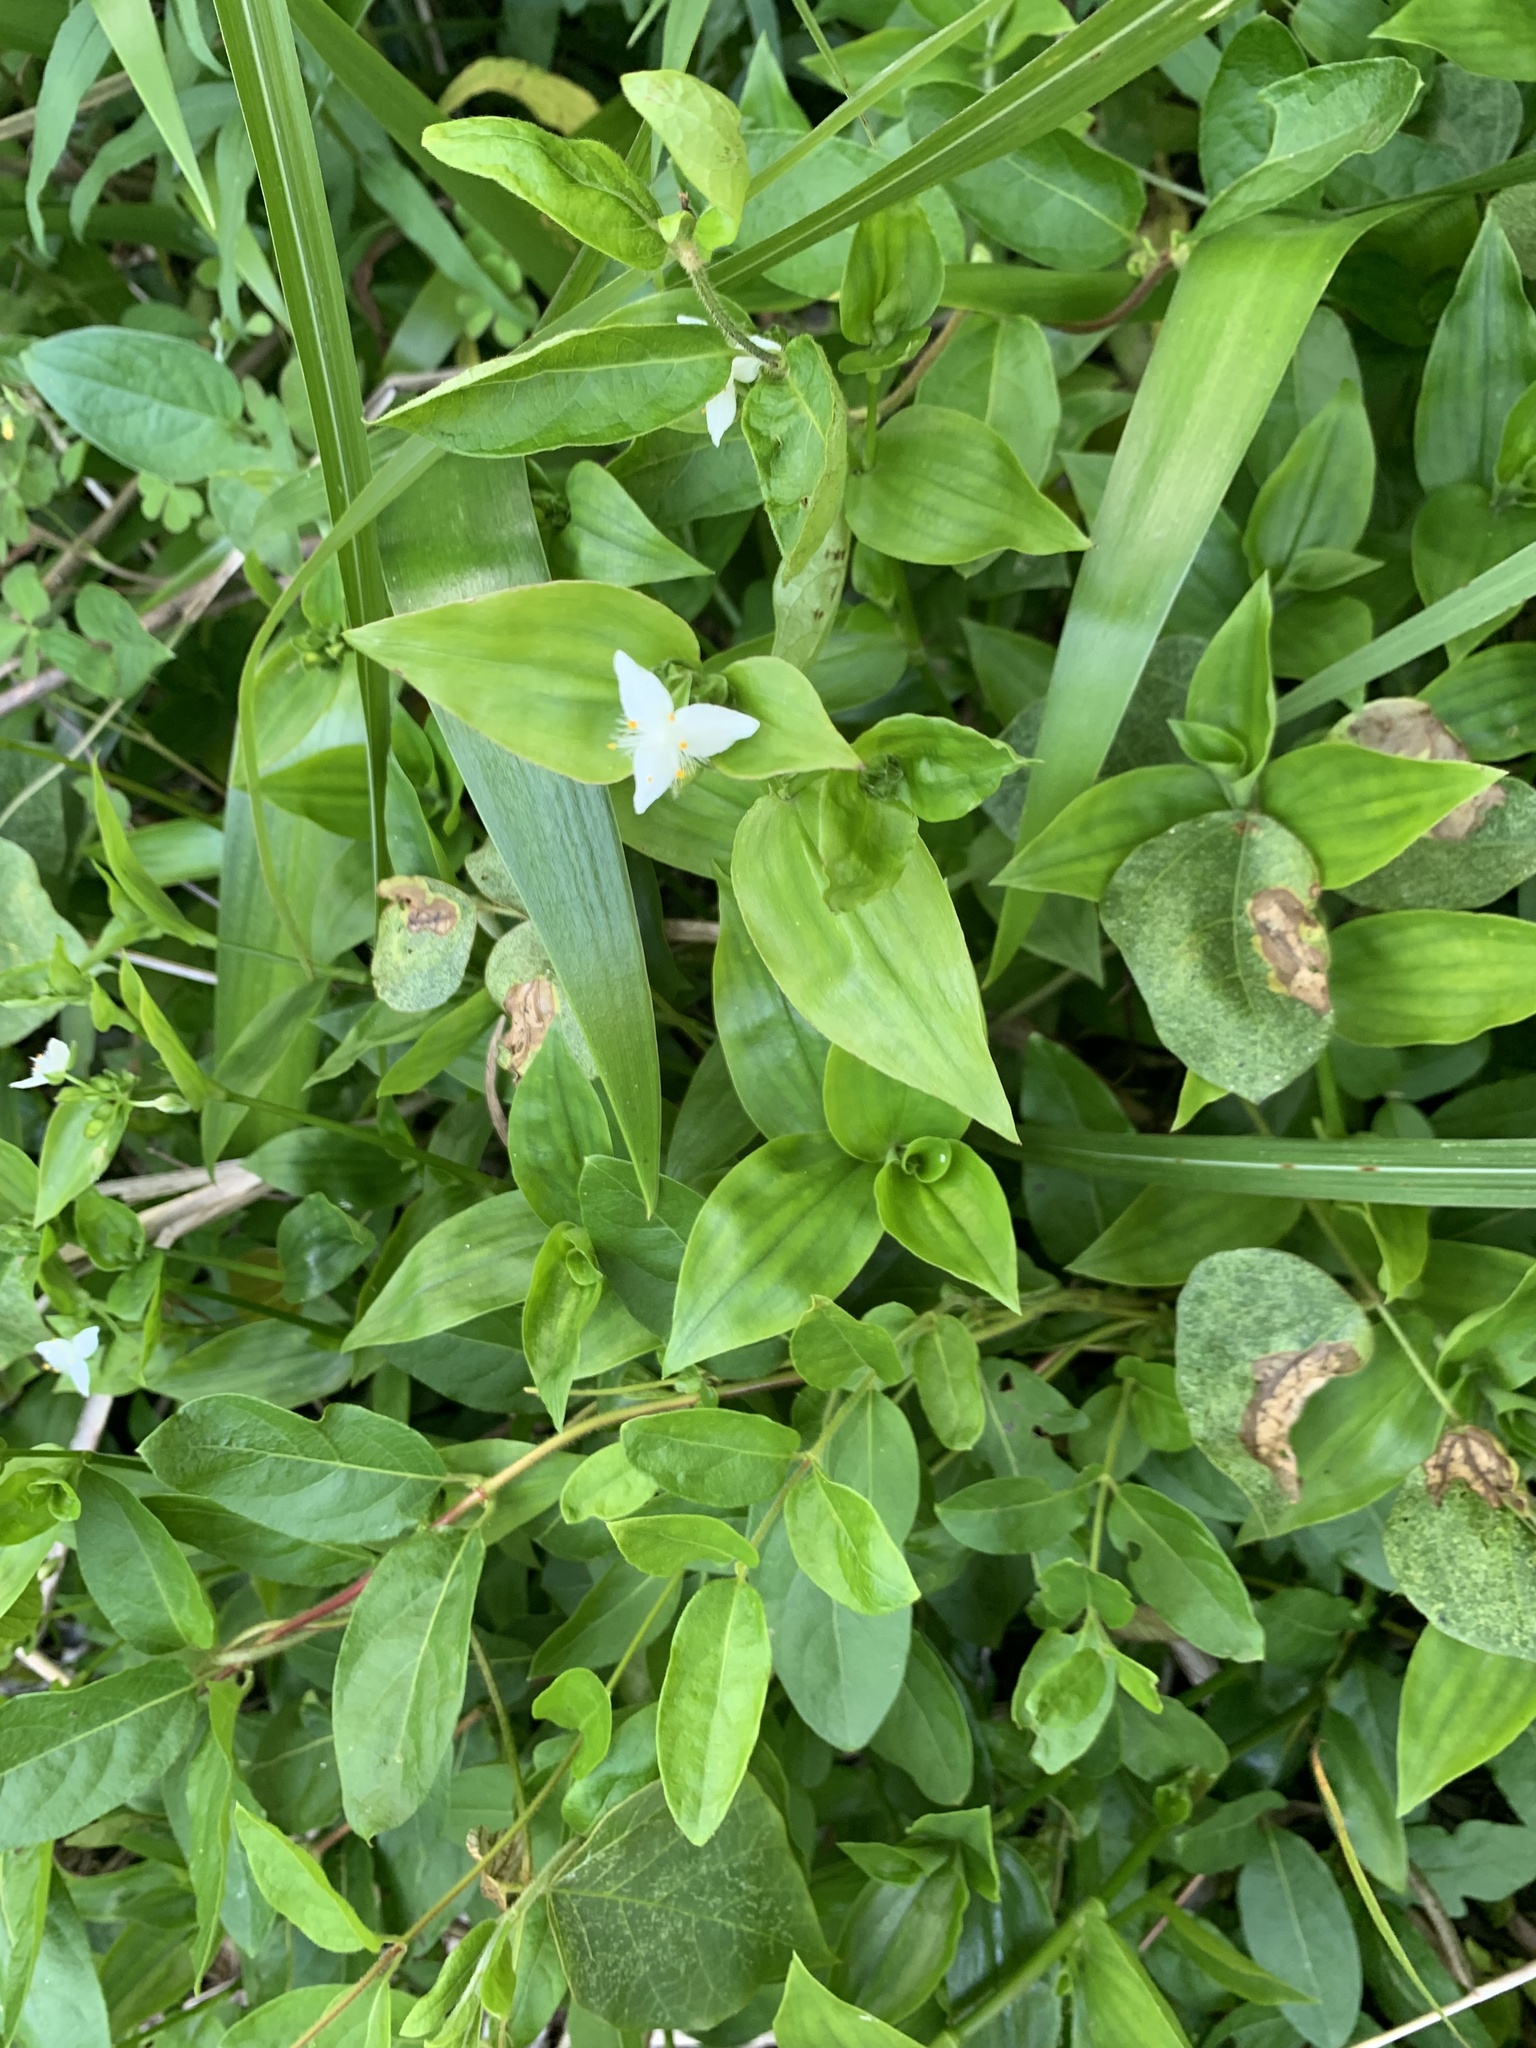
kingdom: Plantae
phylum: Tracheophyta
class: Liliopsida
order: Commelinales
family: Commelinaceae
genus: Tradescantia
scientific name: Tradescantia fluminensis
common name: Wandering-jew
